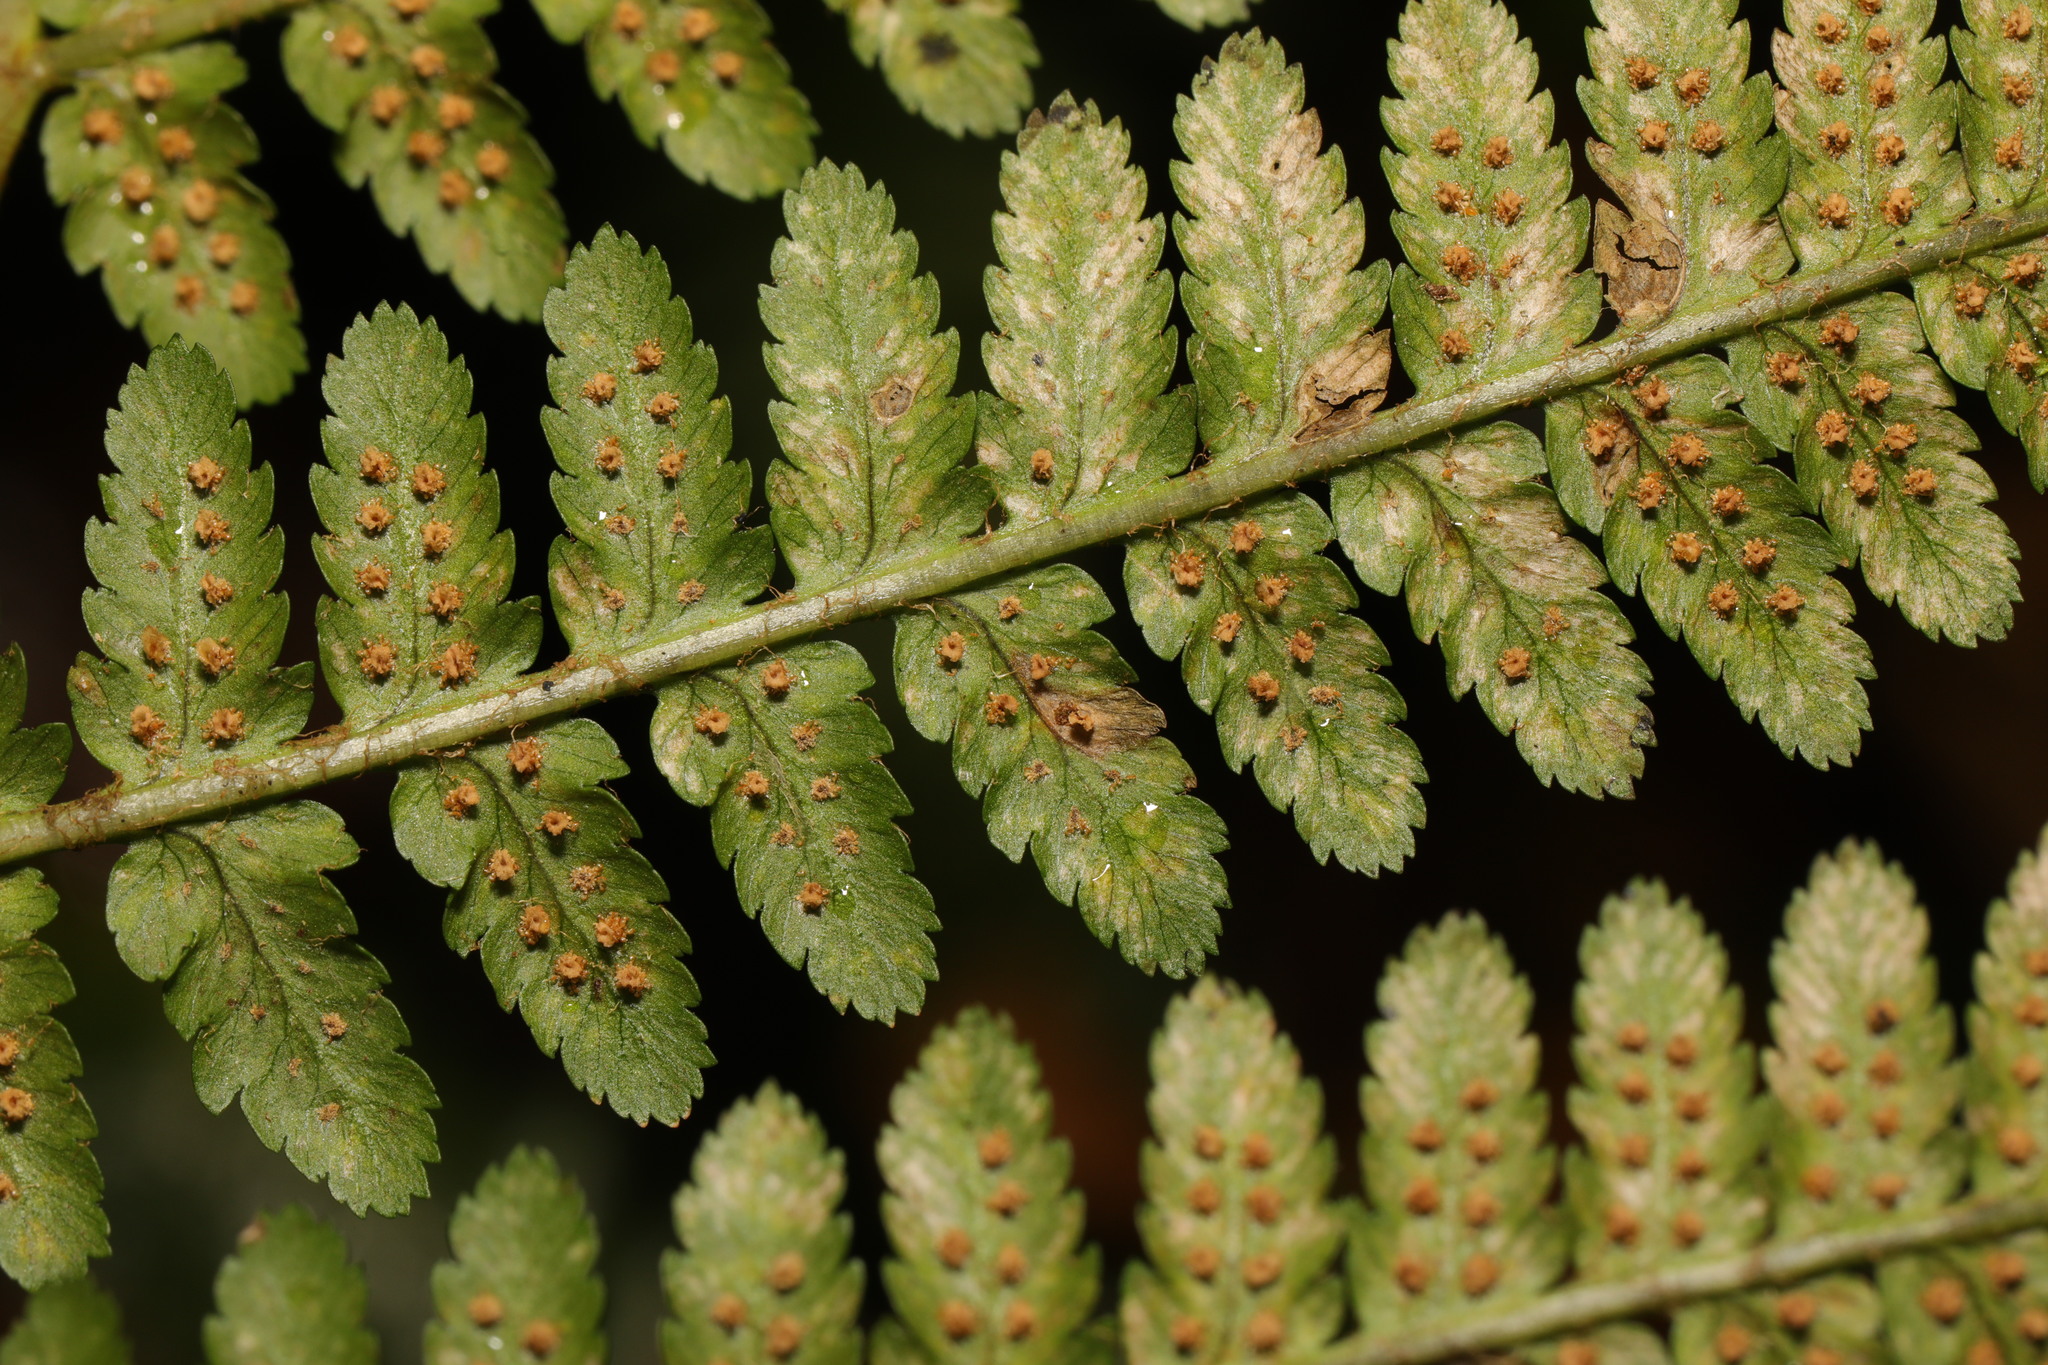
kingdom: Plantae
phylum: Tracheophyta
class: Polypodiopsida
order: Polypodiales
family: Dryopteridaceae
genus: Dryopteris
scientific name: Dryopteris filix-mas
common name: Male fern
